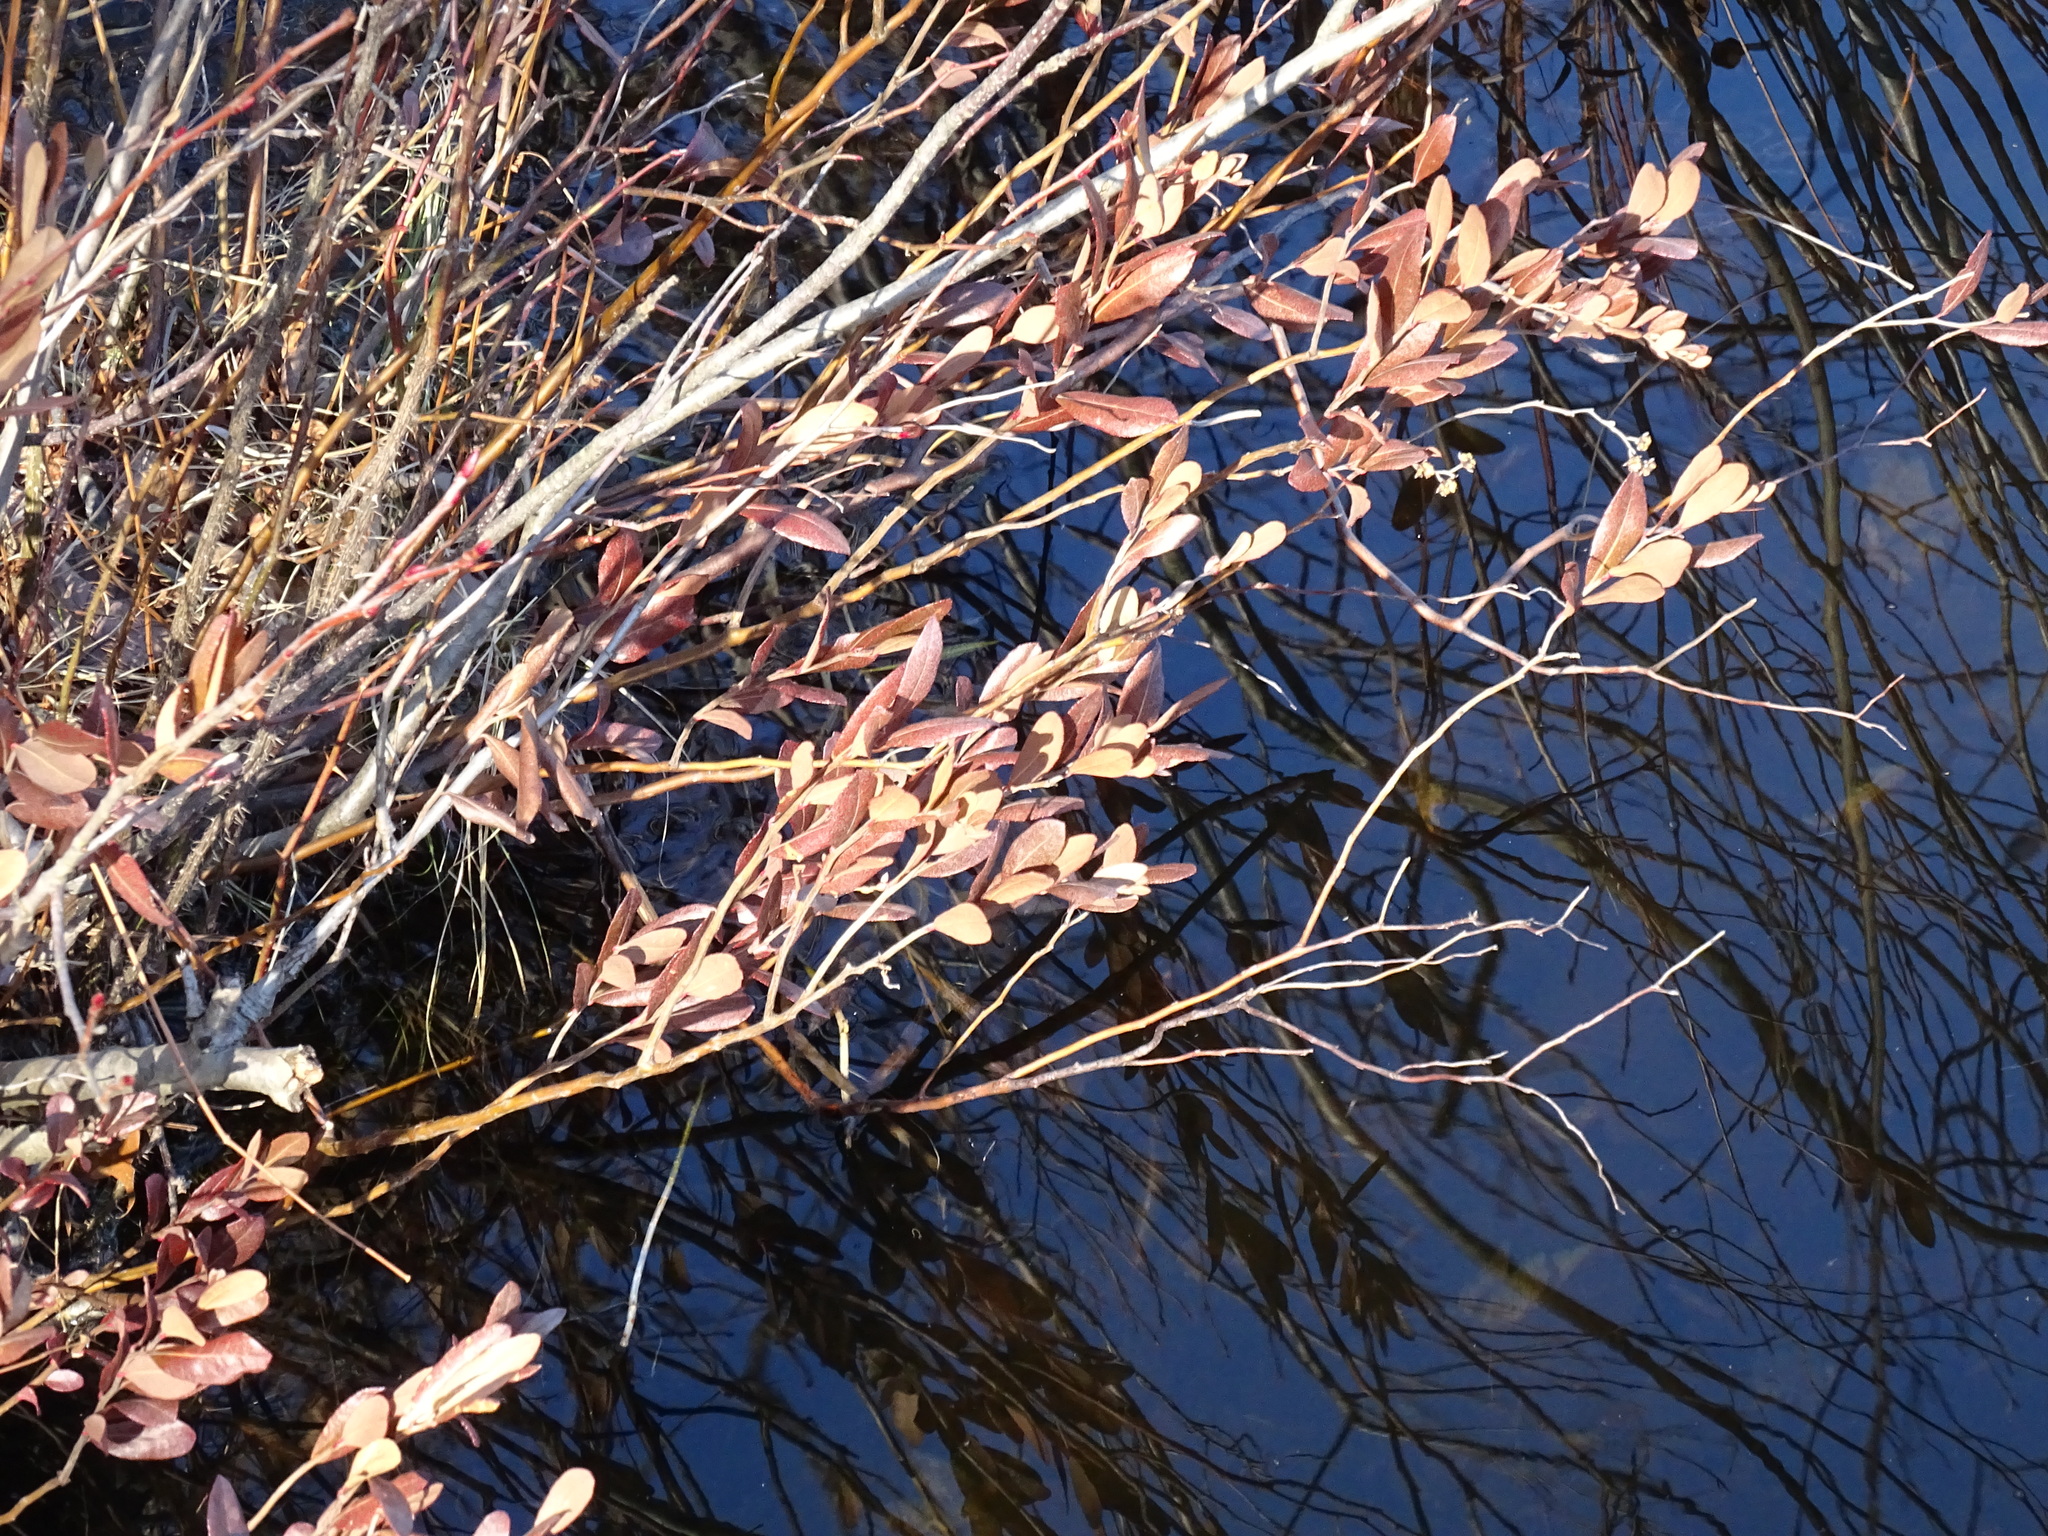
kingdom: Plantae
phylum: Tracheophyta
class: Magnoliopsida
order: Ericales
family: Ericaceae
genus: Chamaedaphne
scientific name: Chamaedaphne calyculata
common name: Leatherleaf
